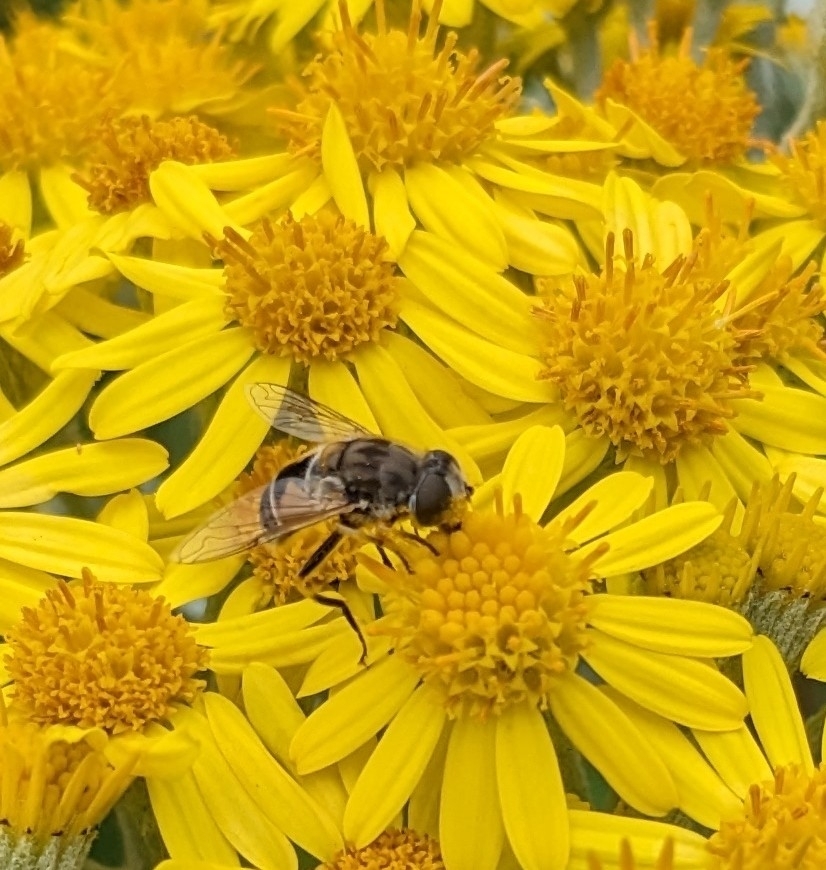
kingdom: Animalia
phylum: Arthropoda
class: Insecta
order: Diptera
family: Syrphidae
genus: Eristalis
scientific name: Eristalis arbustorum
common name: Hover fly
